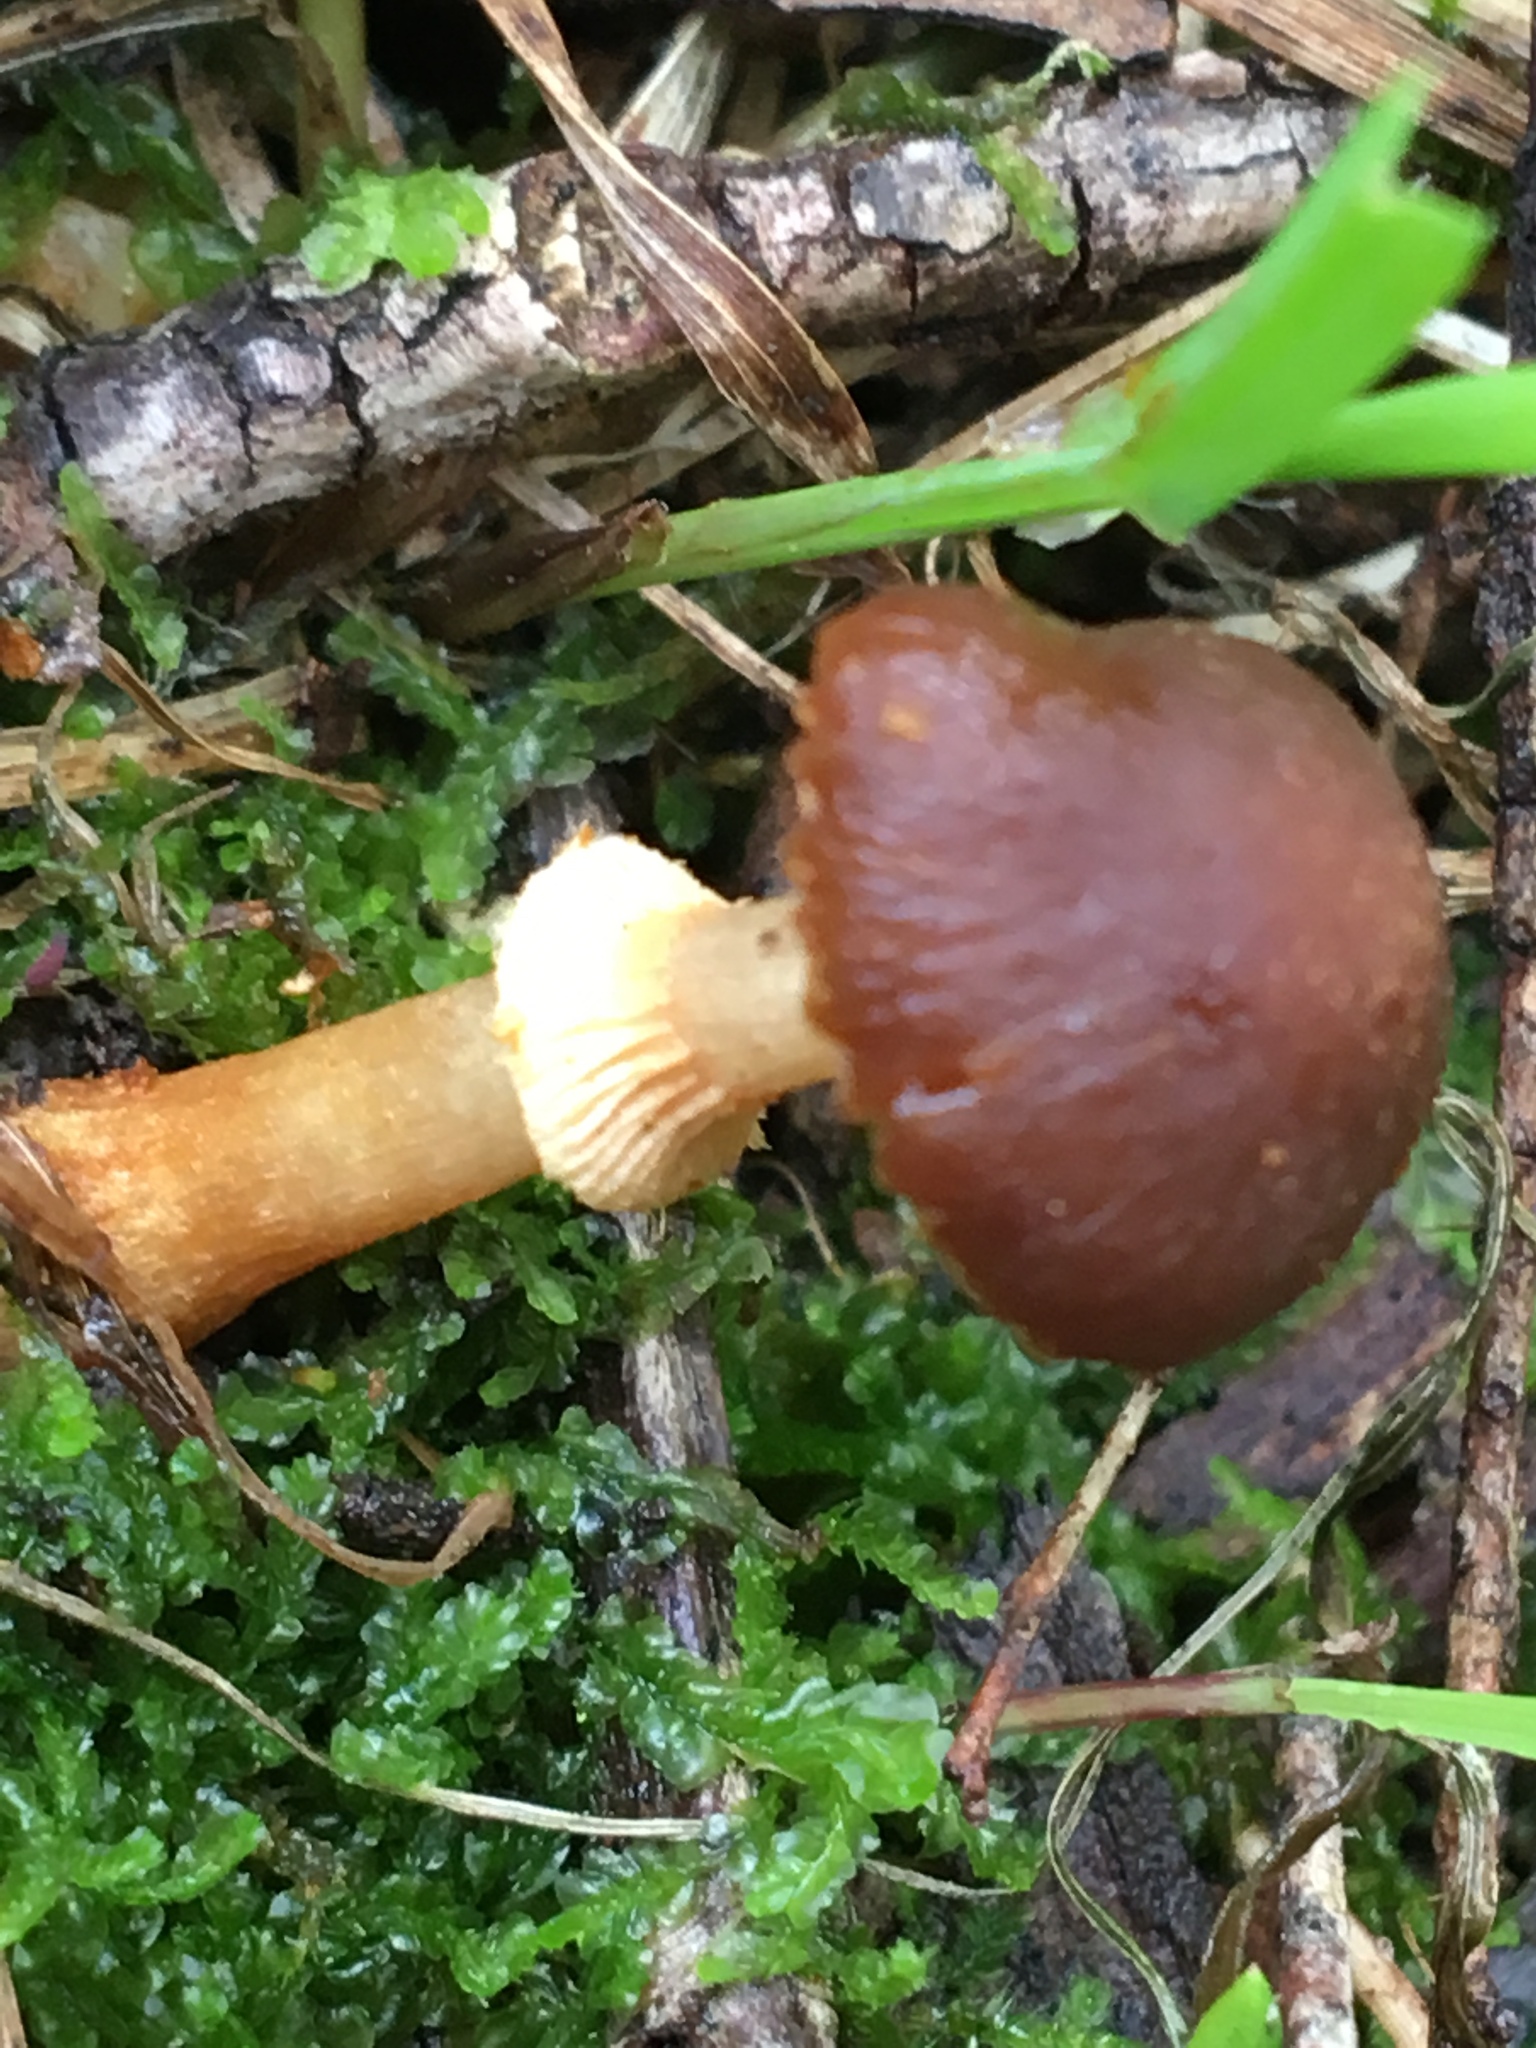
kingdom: Fungi
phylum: Basidiomycota
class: Agaricomycetes
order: Agaricales
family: Bolbitiaceae
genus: Descolea
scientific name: Descolea recedens
